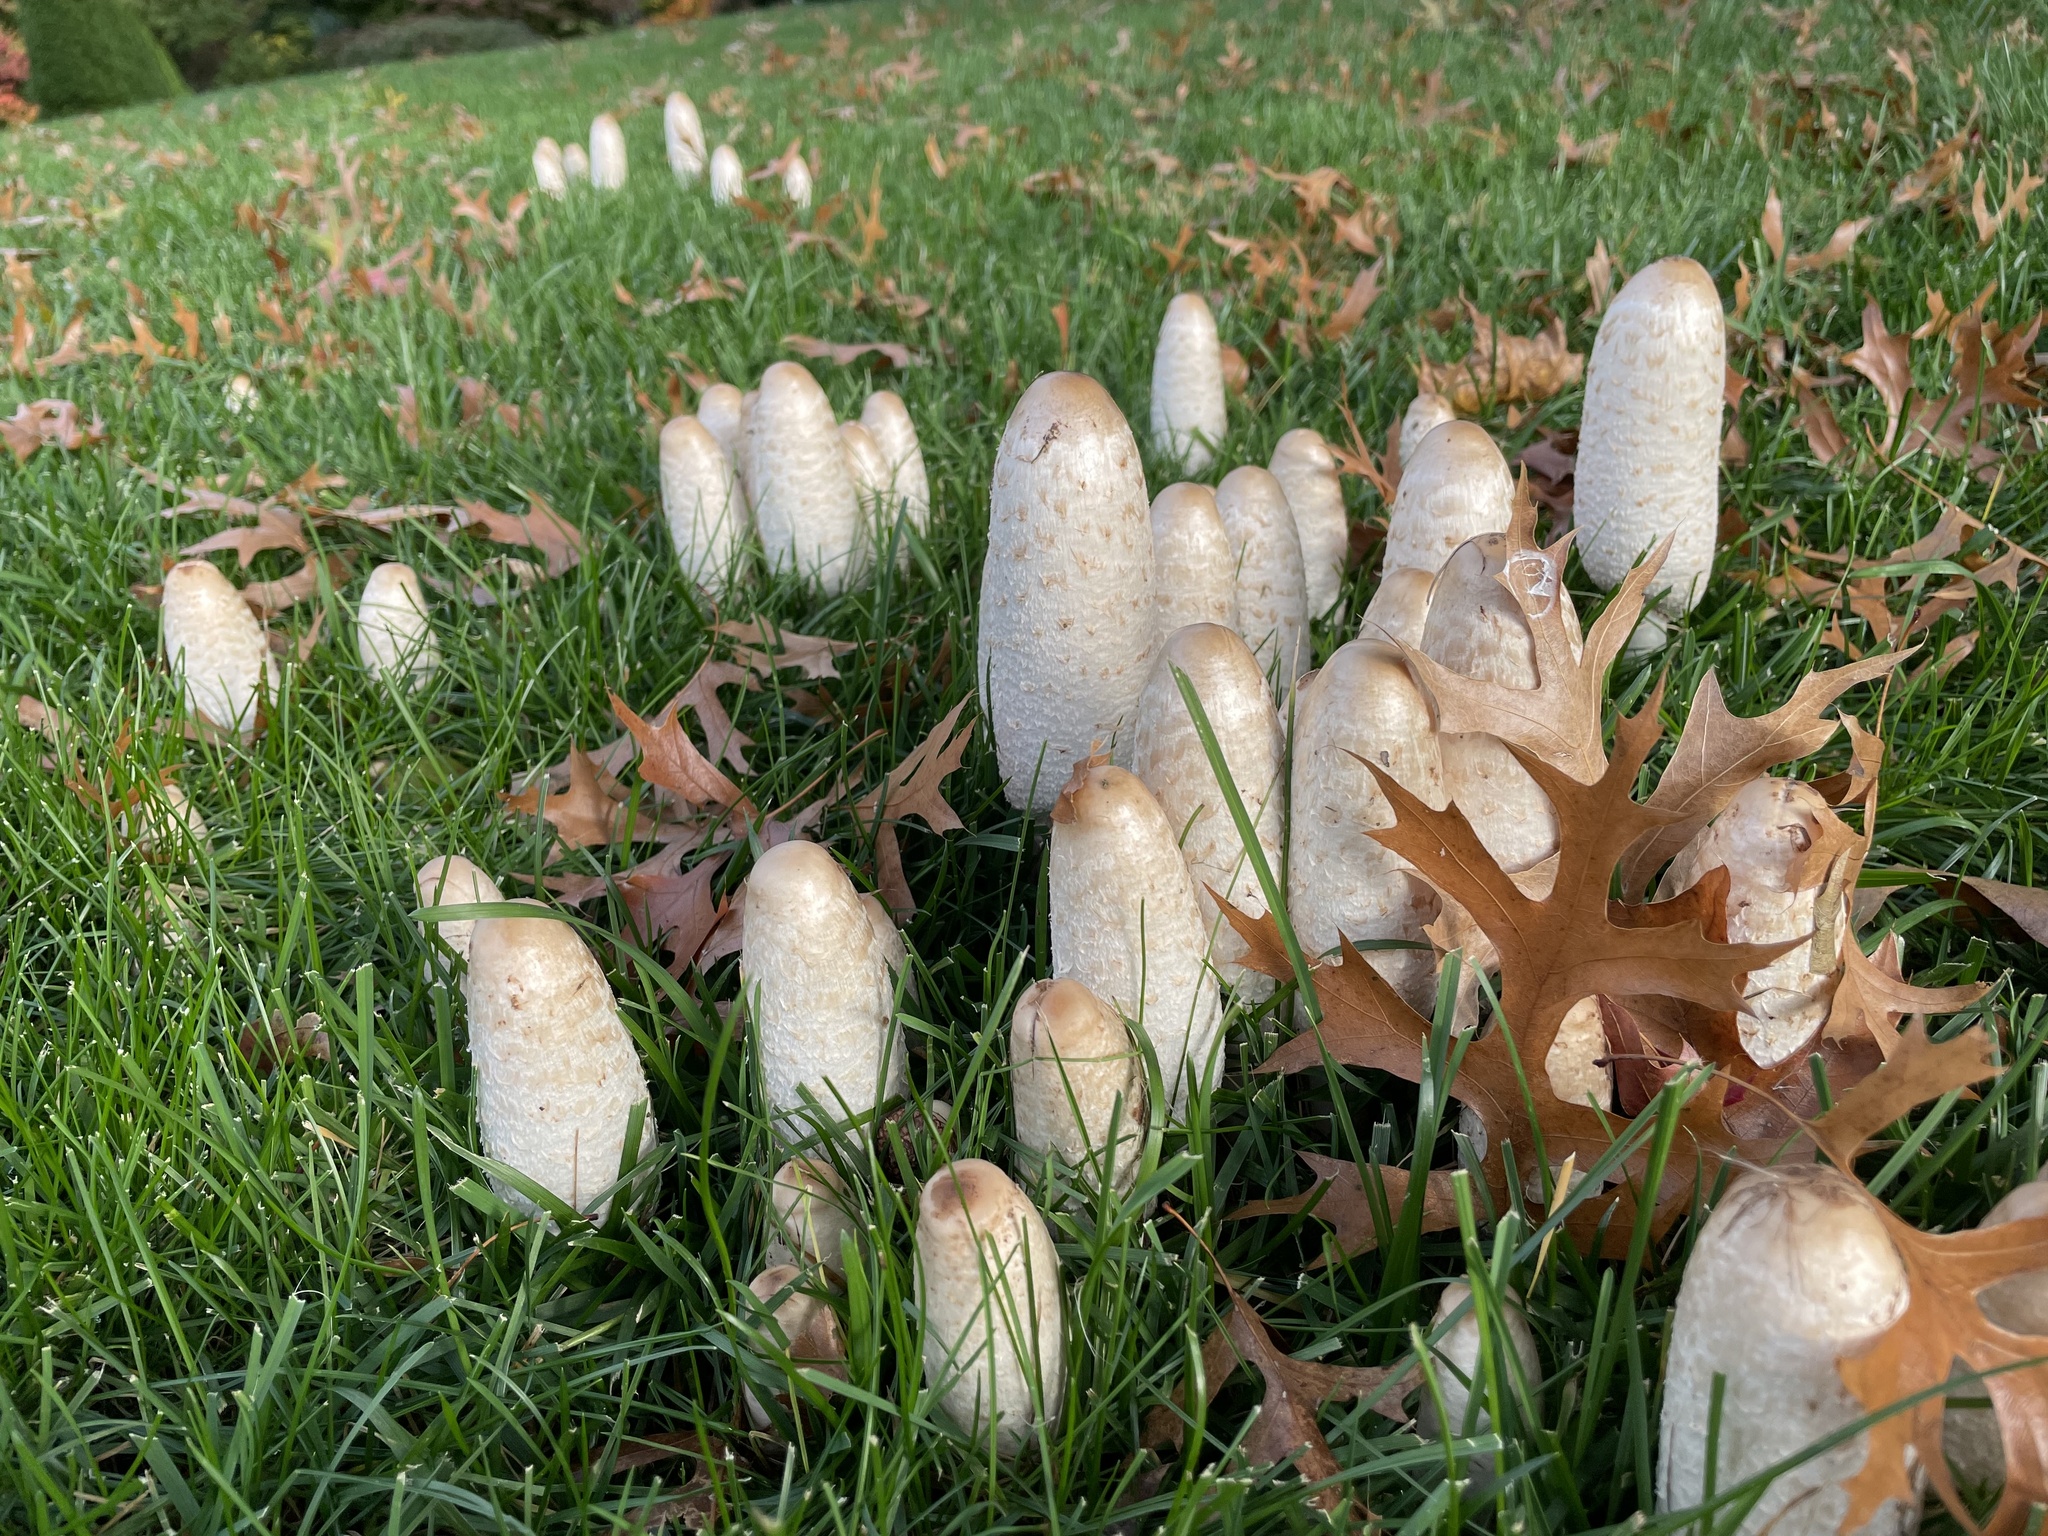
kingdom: Fungi
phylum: Basidiomycota
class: Agaricomycetes
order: Agaricales
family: Agaricaceae
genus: Coprinus
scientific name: Coprinus comatus
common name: Lawyer's wig
